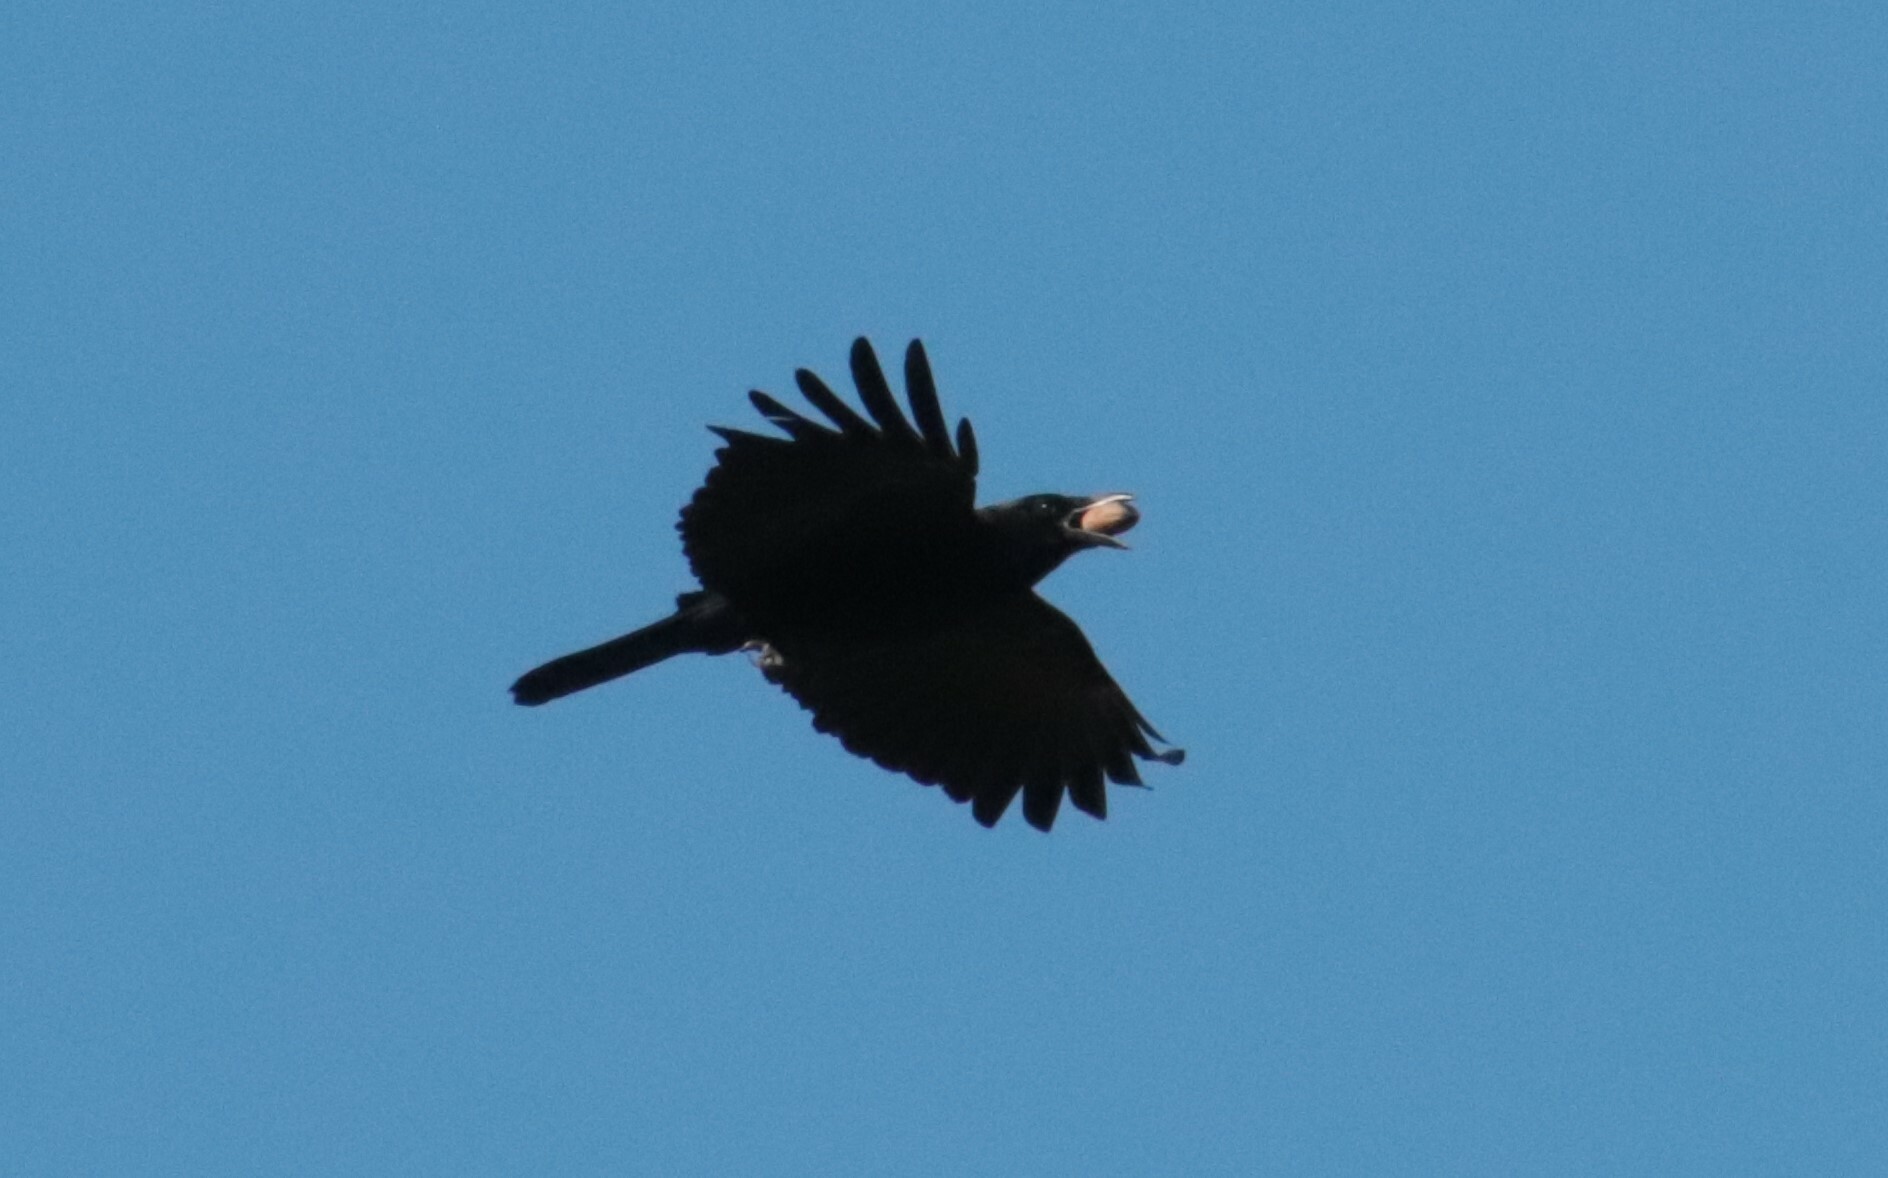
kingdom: Animalia
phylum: Chordata
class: Aves
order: Passeriformes
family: Corvidae
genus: Corvus
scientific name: Corvus brachyrhynchos
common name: American crow
